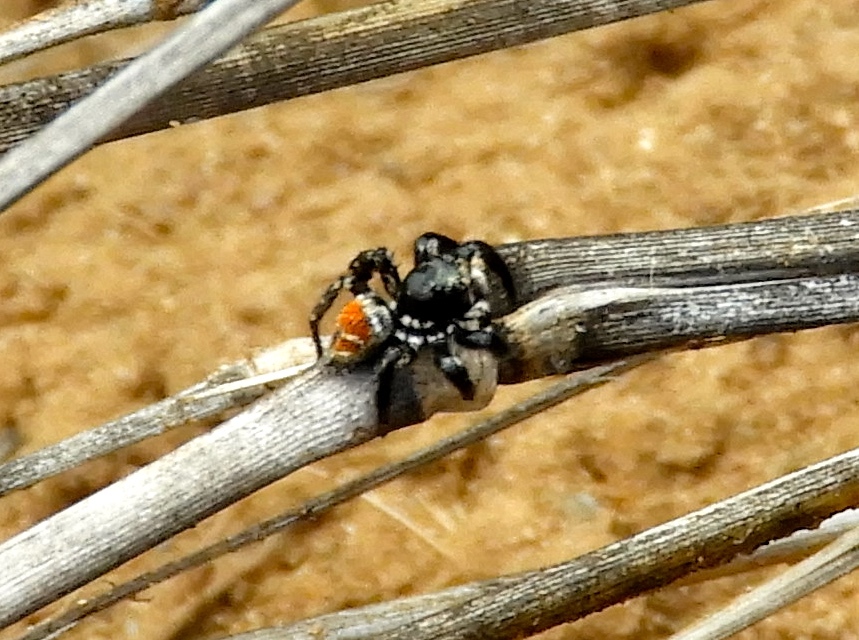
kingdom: Animalia
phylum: Arthropoda
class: Arachnida
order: Araneae
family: Salticidae
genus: Corythalia
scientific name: Corythalia
